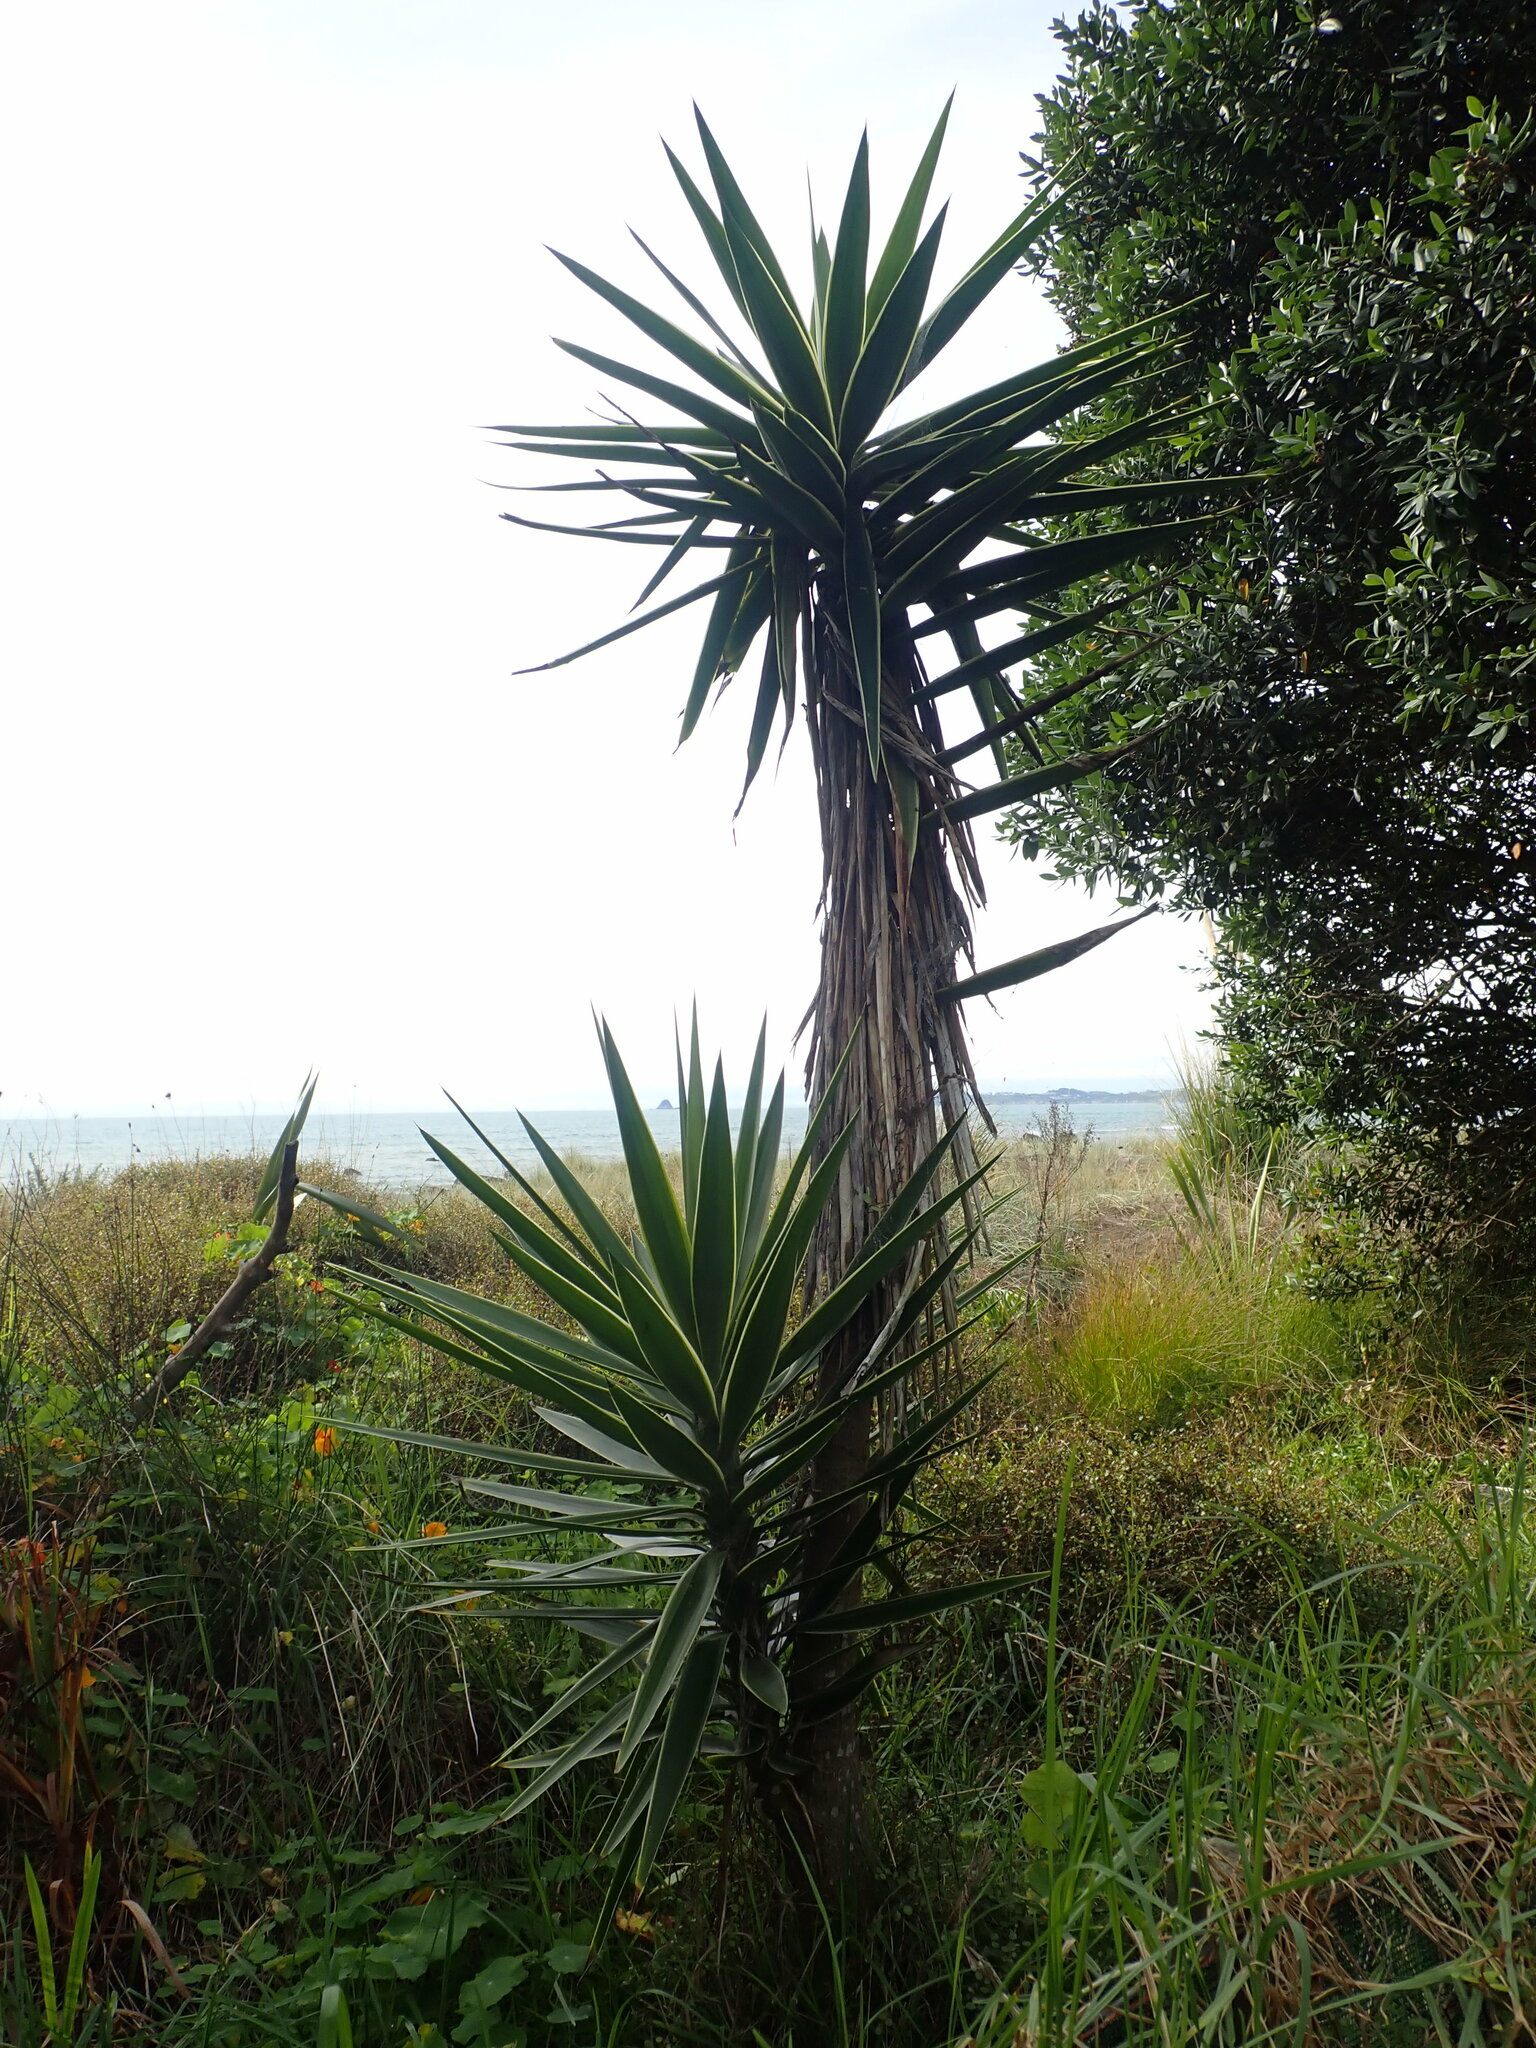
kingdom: Plantae
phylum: Tracheophyta
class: Liliopsida
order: Asparagales
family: Asparagaceae
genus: Cordyline
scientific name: Cordyline australis
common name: Cabbage-palm
